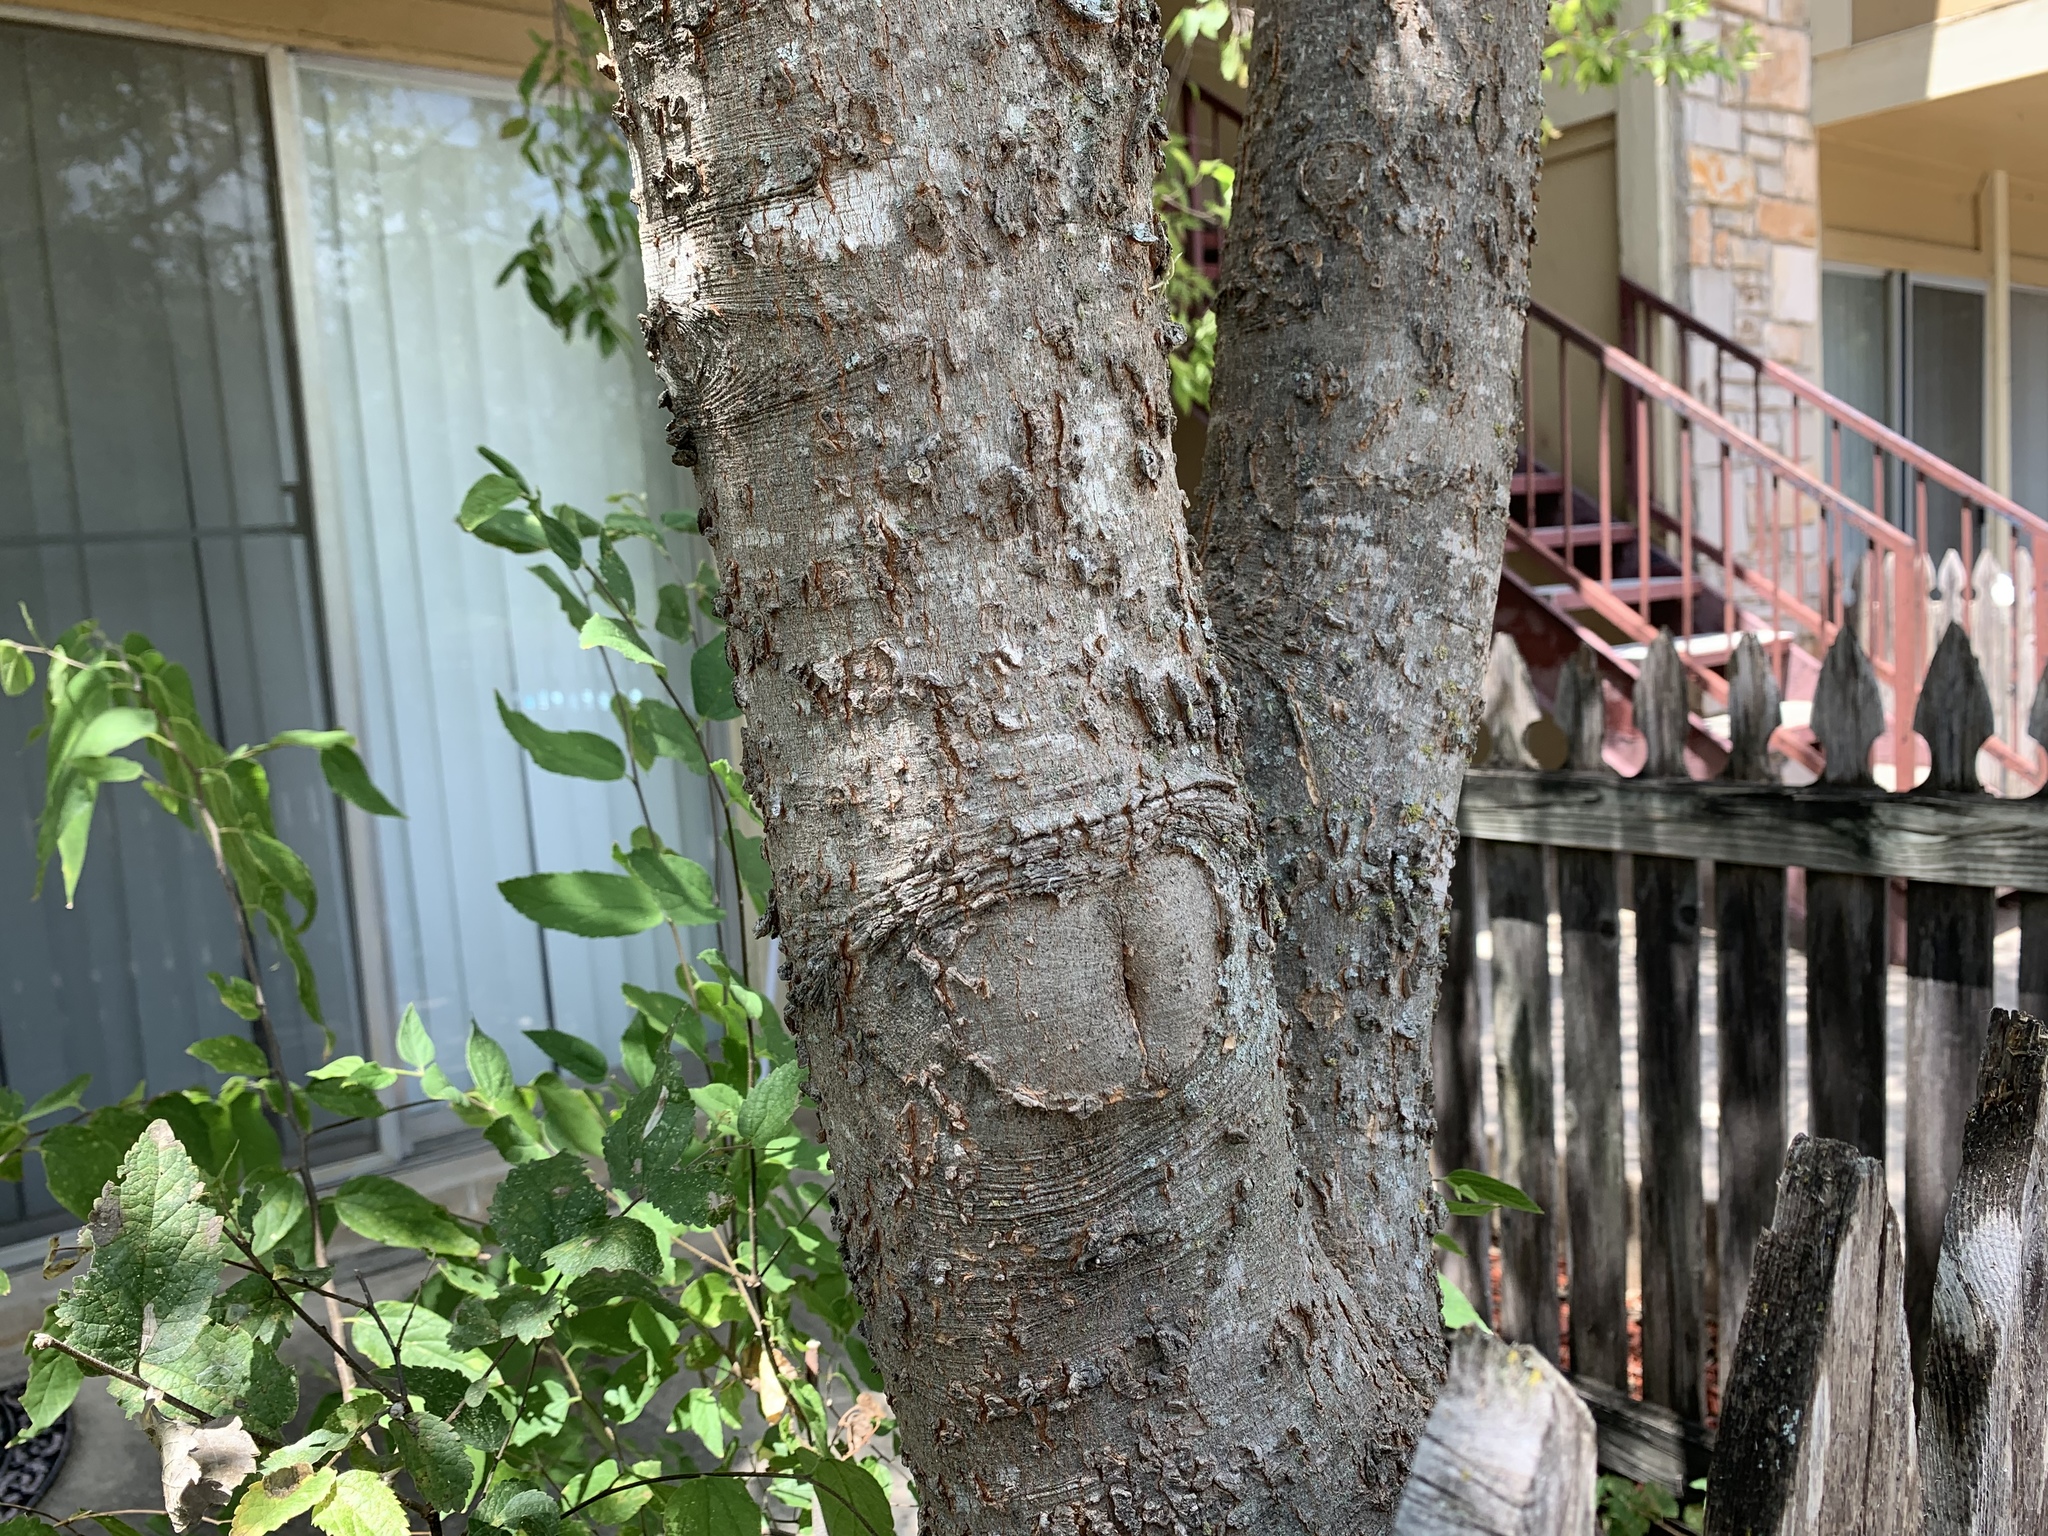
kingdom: Plantae
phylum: Tracheophyta
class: Magnoliopsida
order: Rosales
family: Cannabaceae
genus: Celtis
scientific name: Celtis laevigata
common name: Sugarberry
